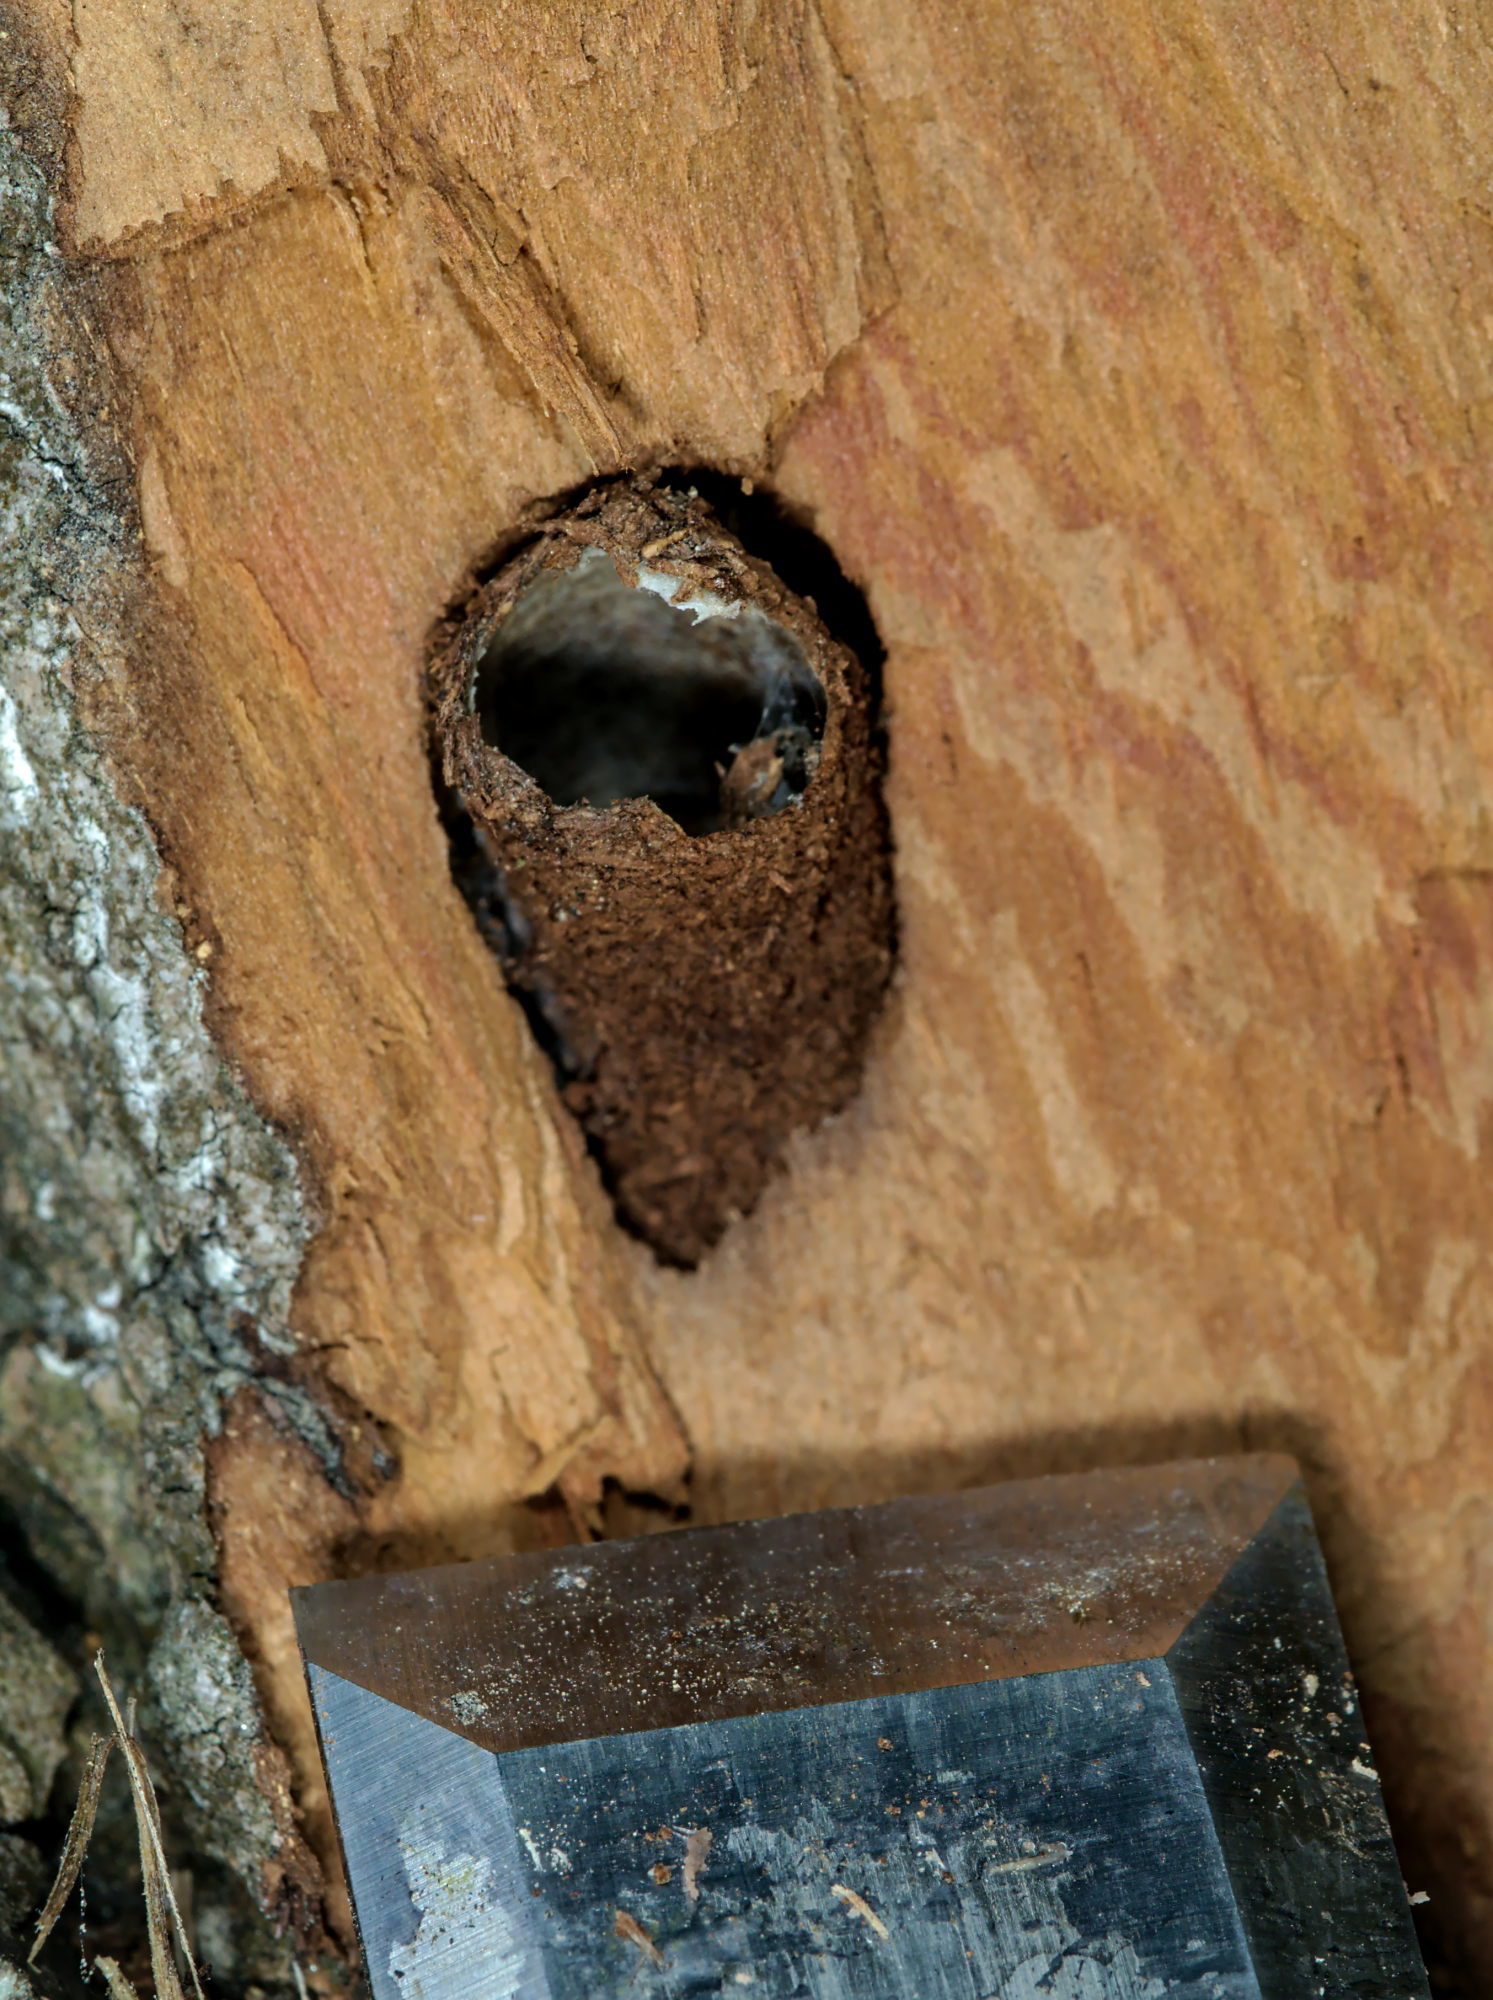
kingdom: Animalia
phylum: Arthropoda
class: Insecta
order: Lepidoptera
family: Noctuidae
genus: Apterogenum
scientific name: Apterogenum ypsillon
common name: Dingy shears
